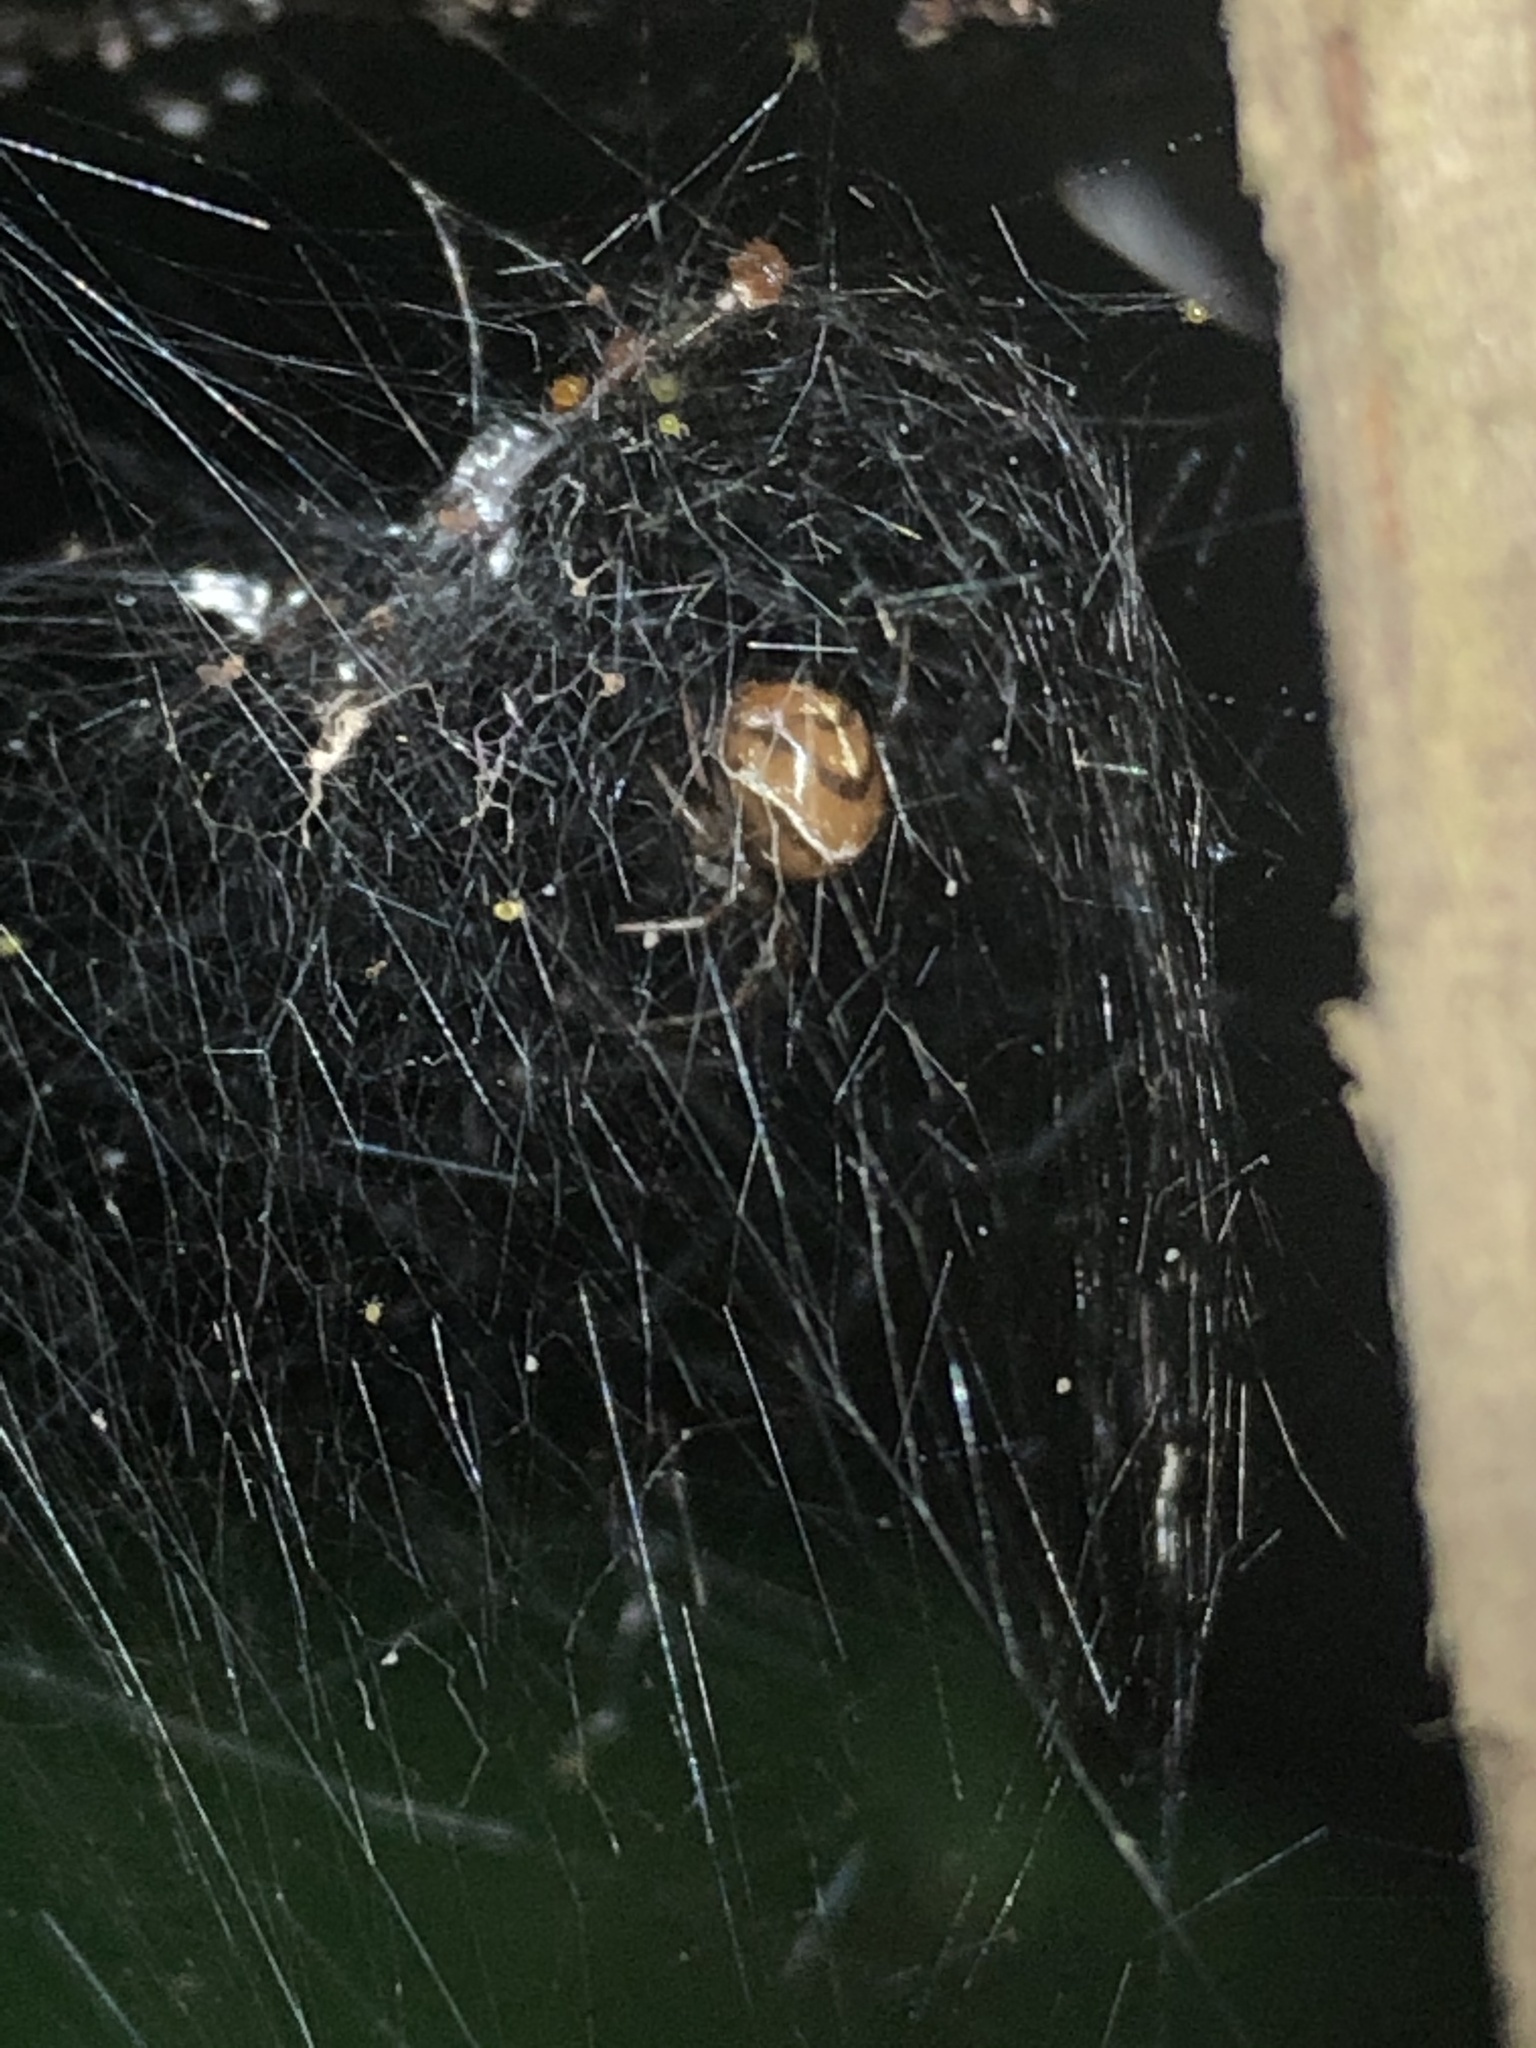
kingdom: Animalia
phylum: Arthropoda
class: Arachnida
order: Araneae
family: Theridiidae
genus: Nihonhimea
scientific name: Nihonhimea tesselata
